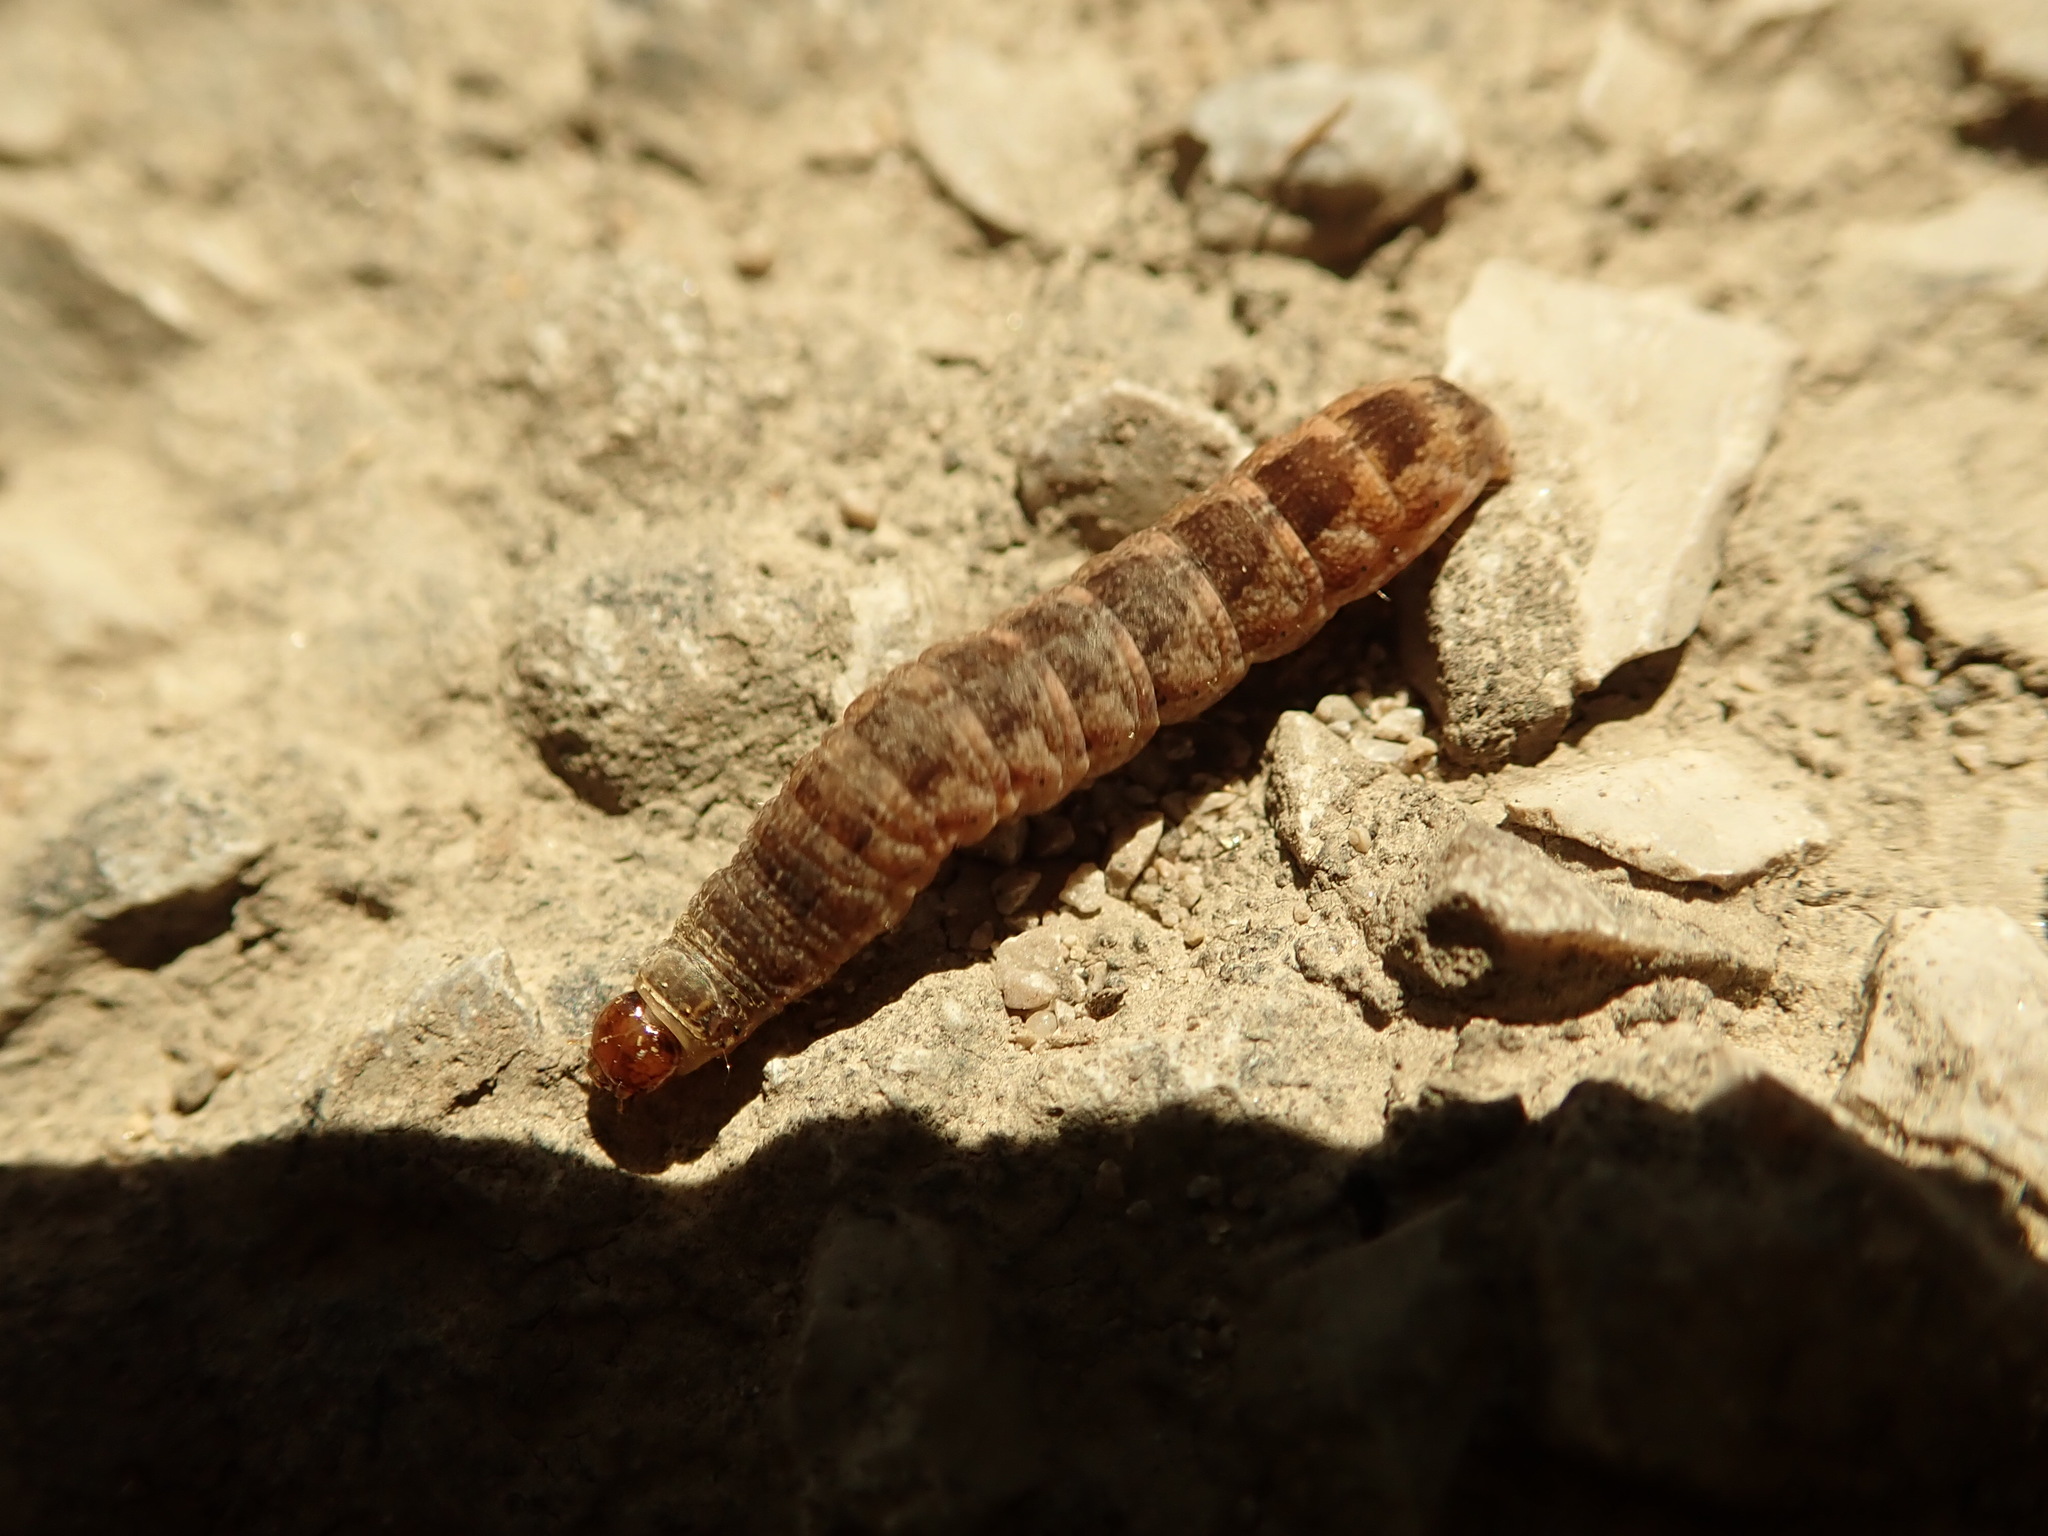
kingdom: Animalia
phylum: Arthropoda
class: Insecta
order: Lepidoptera
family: Noctuidae
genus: Agrochola
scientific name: Agrochola bicolorago
